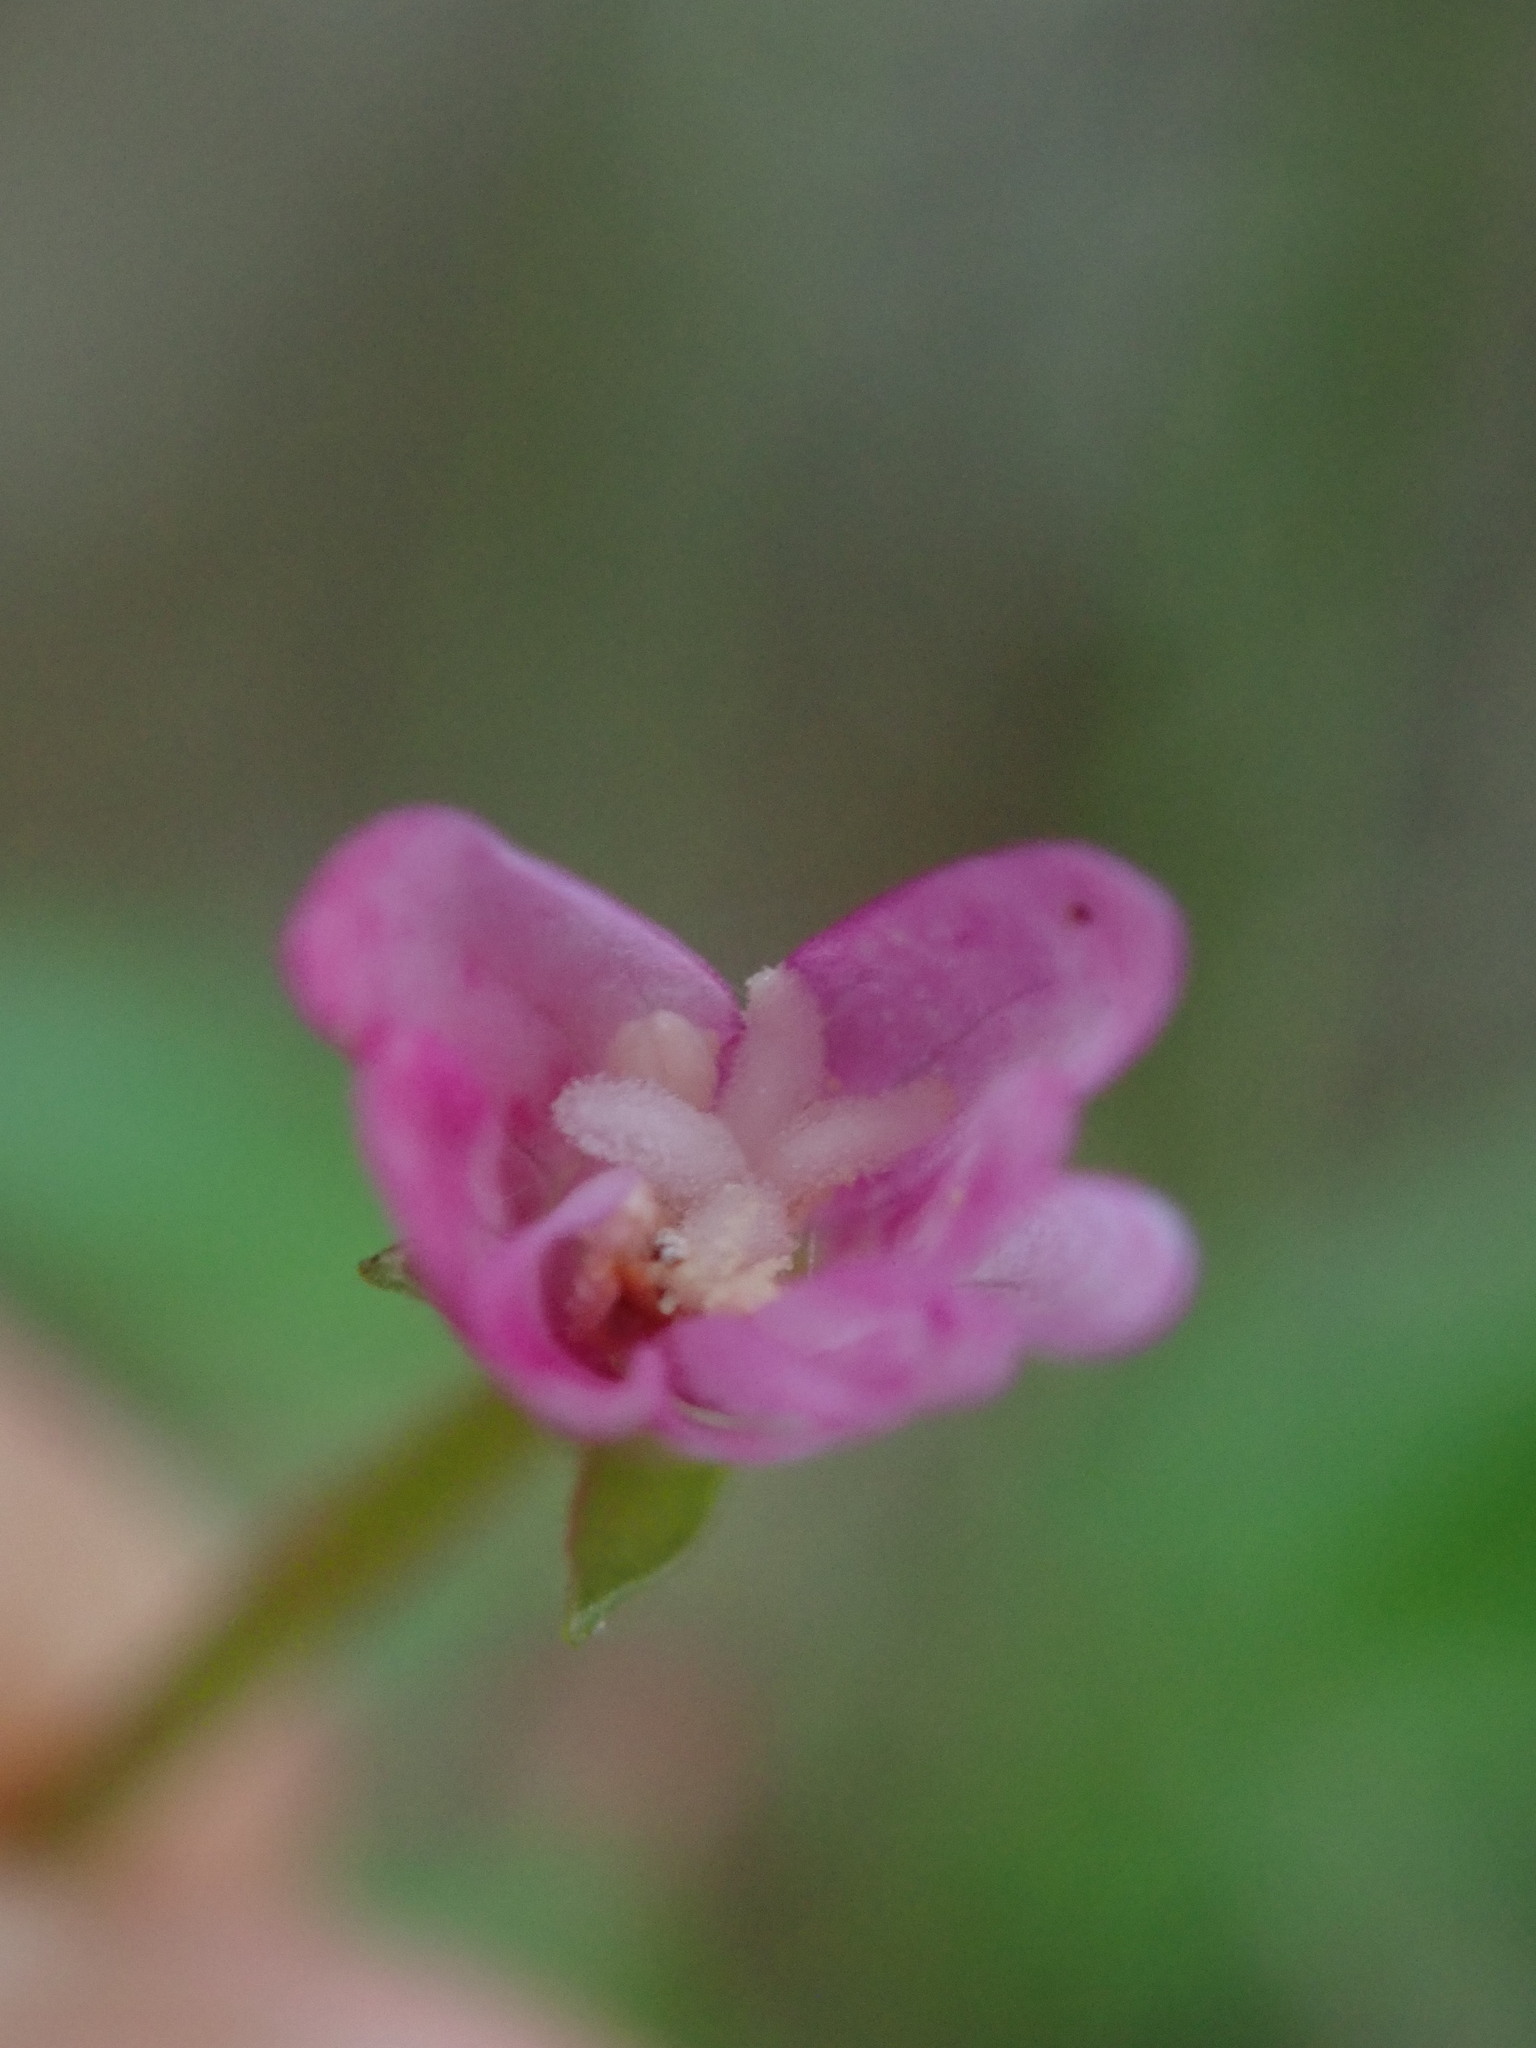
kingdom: Plantae
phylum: Tracheophyta
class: Magnoliopsida
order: Myrtales
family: Onagraceae
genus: Epilobium
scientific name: Epilobium montanum
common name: Broad-leaved willowherb
